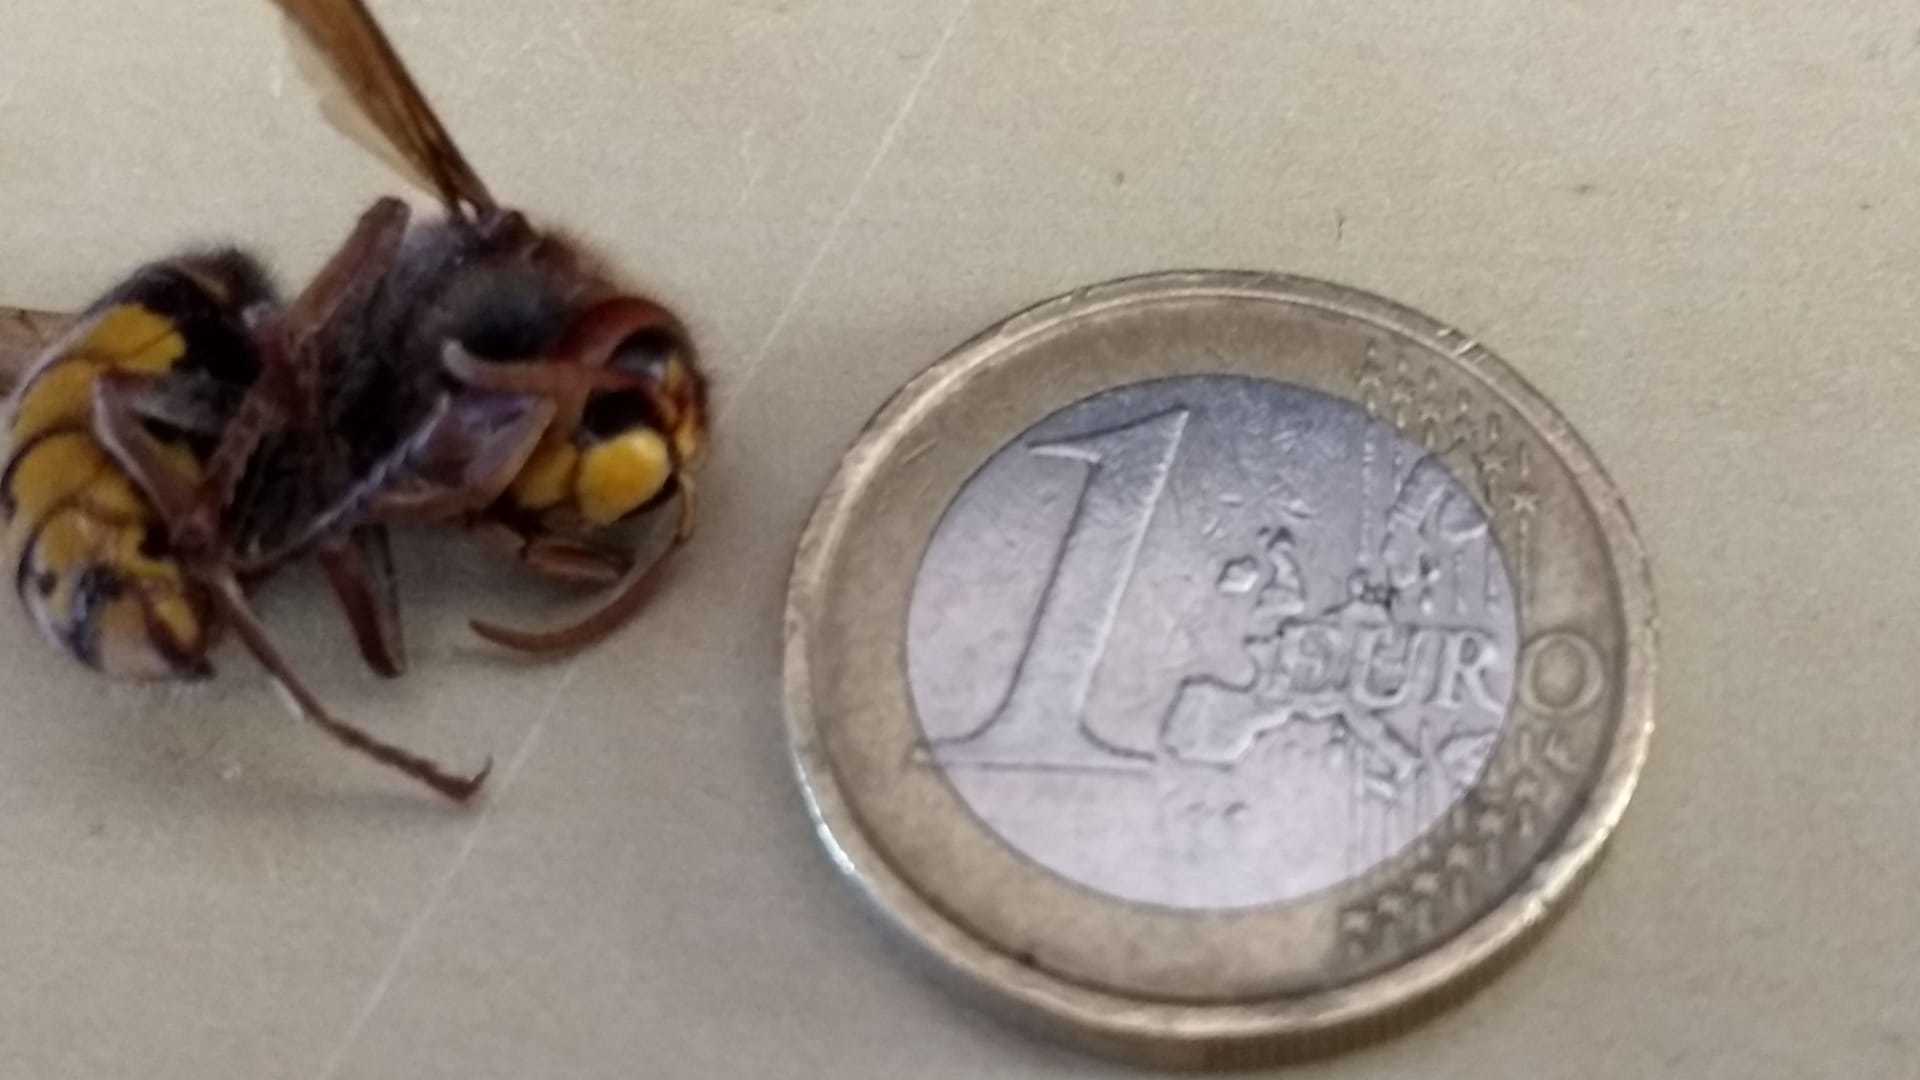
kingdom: Animalia
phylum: Arthropoda
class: Insecta
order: Hymenoptera
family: Vespidae
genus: Vespa
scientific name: Vespa crabro
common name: Hornet
